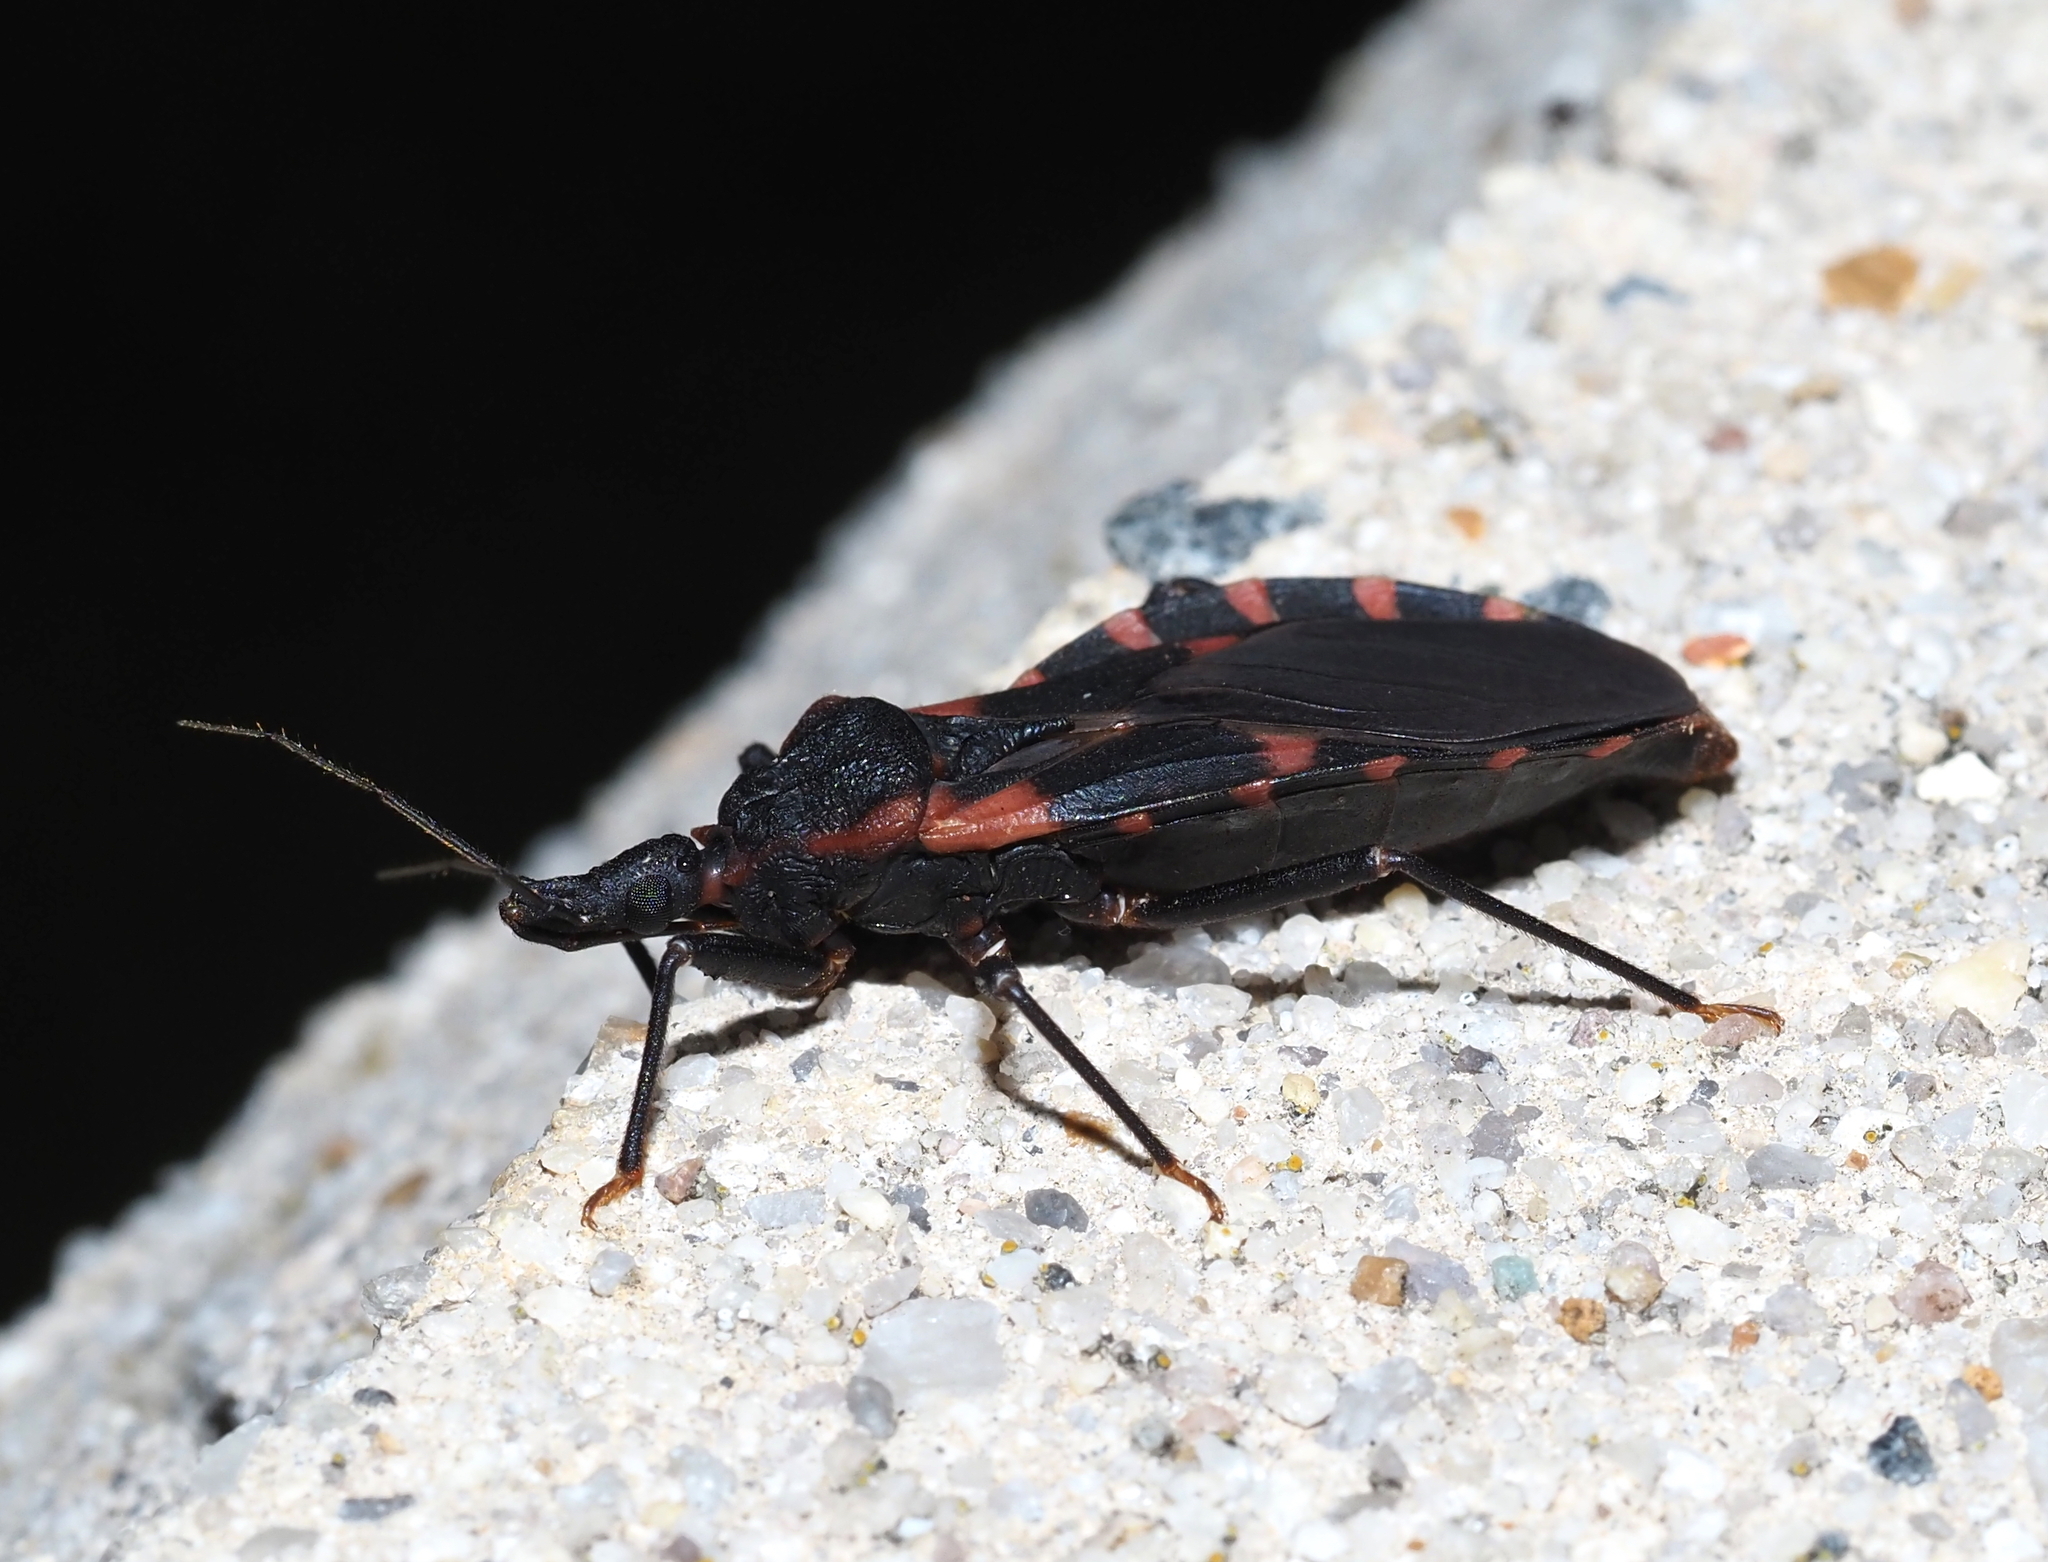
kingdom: Animalia
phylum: Arthropoda
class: Insecta
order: Hemiptera
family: Reduviidae
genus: Triatoma
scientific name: Triatoma sanguisuga
